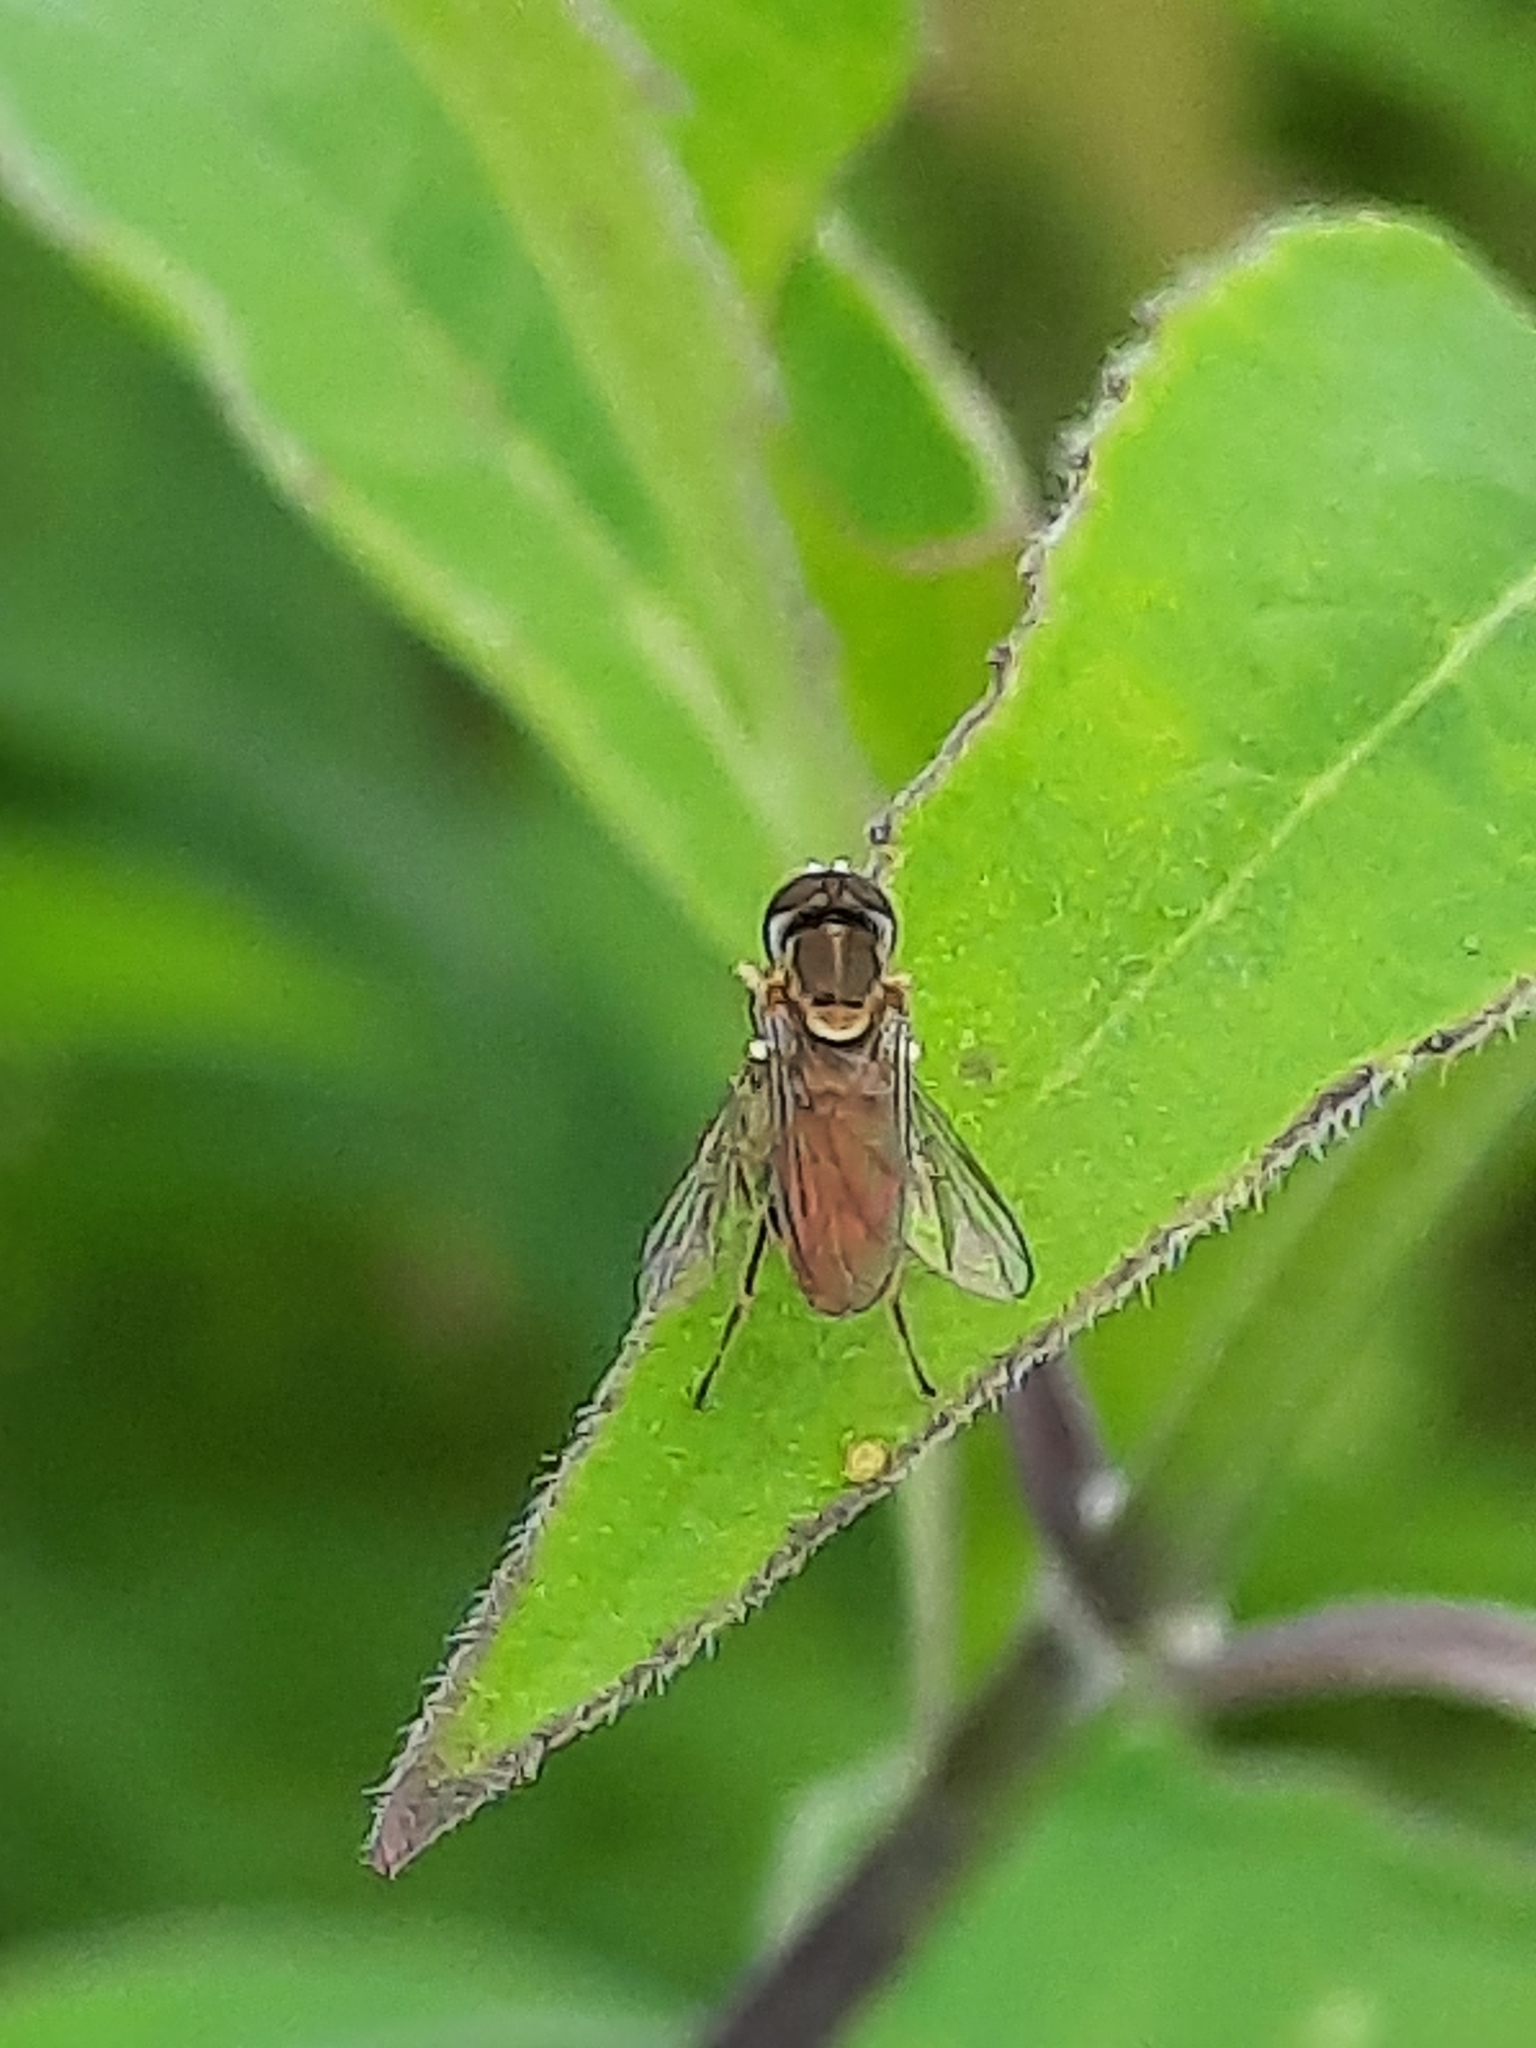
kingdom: Animalia
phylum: Arthropoda
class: Insecta
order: Diptera
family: Syrphidae
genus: Toxomerus
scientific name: Toxomerus marginatus
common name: Syrphid fly
